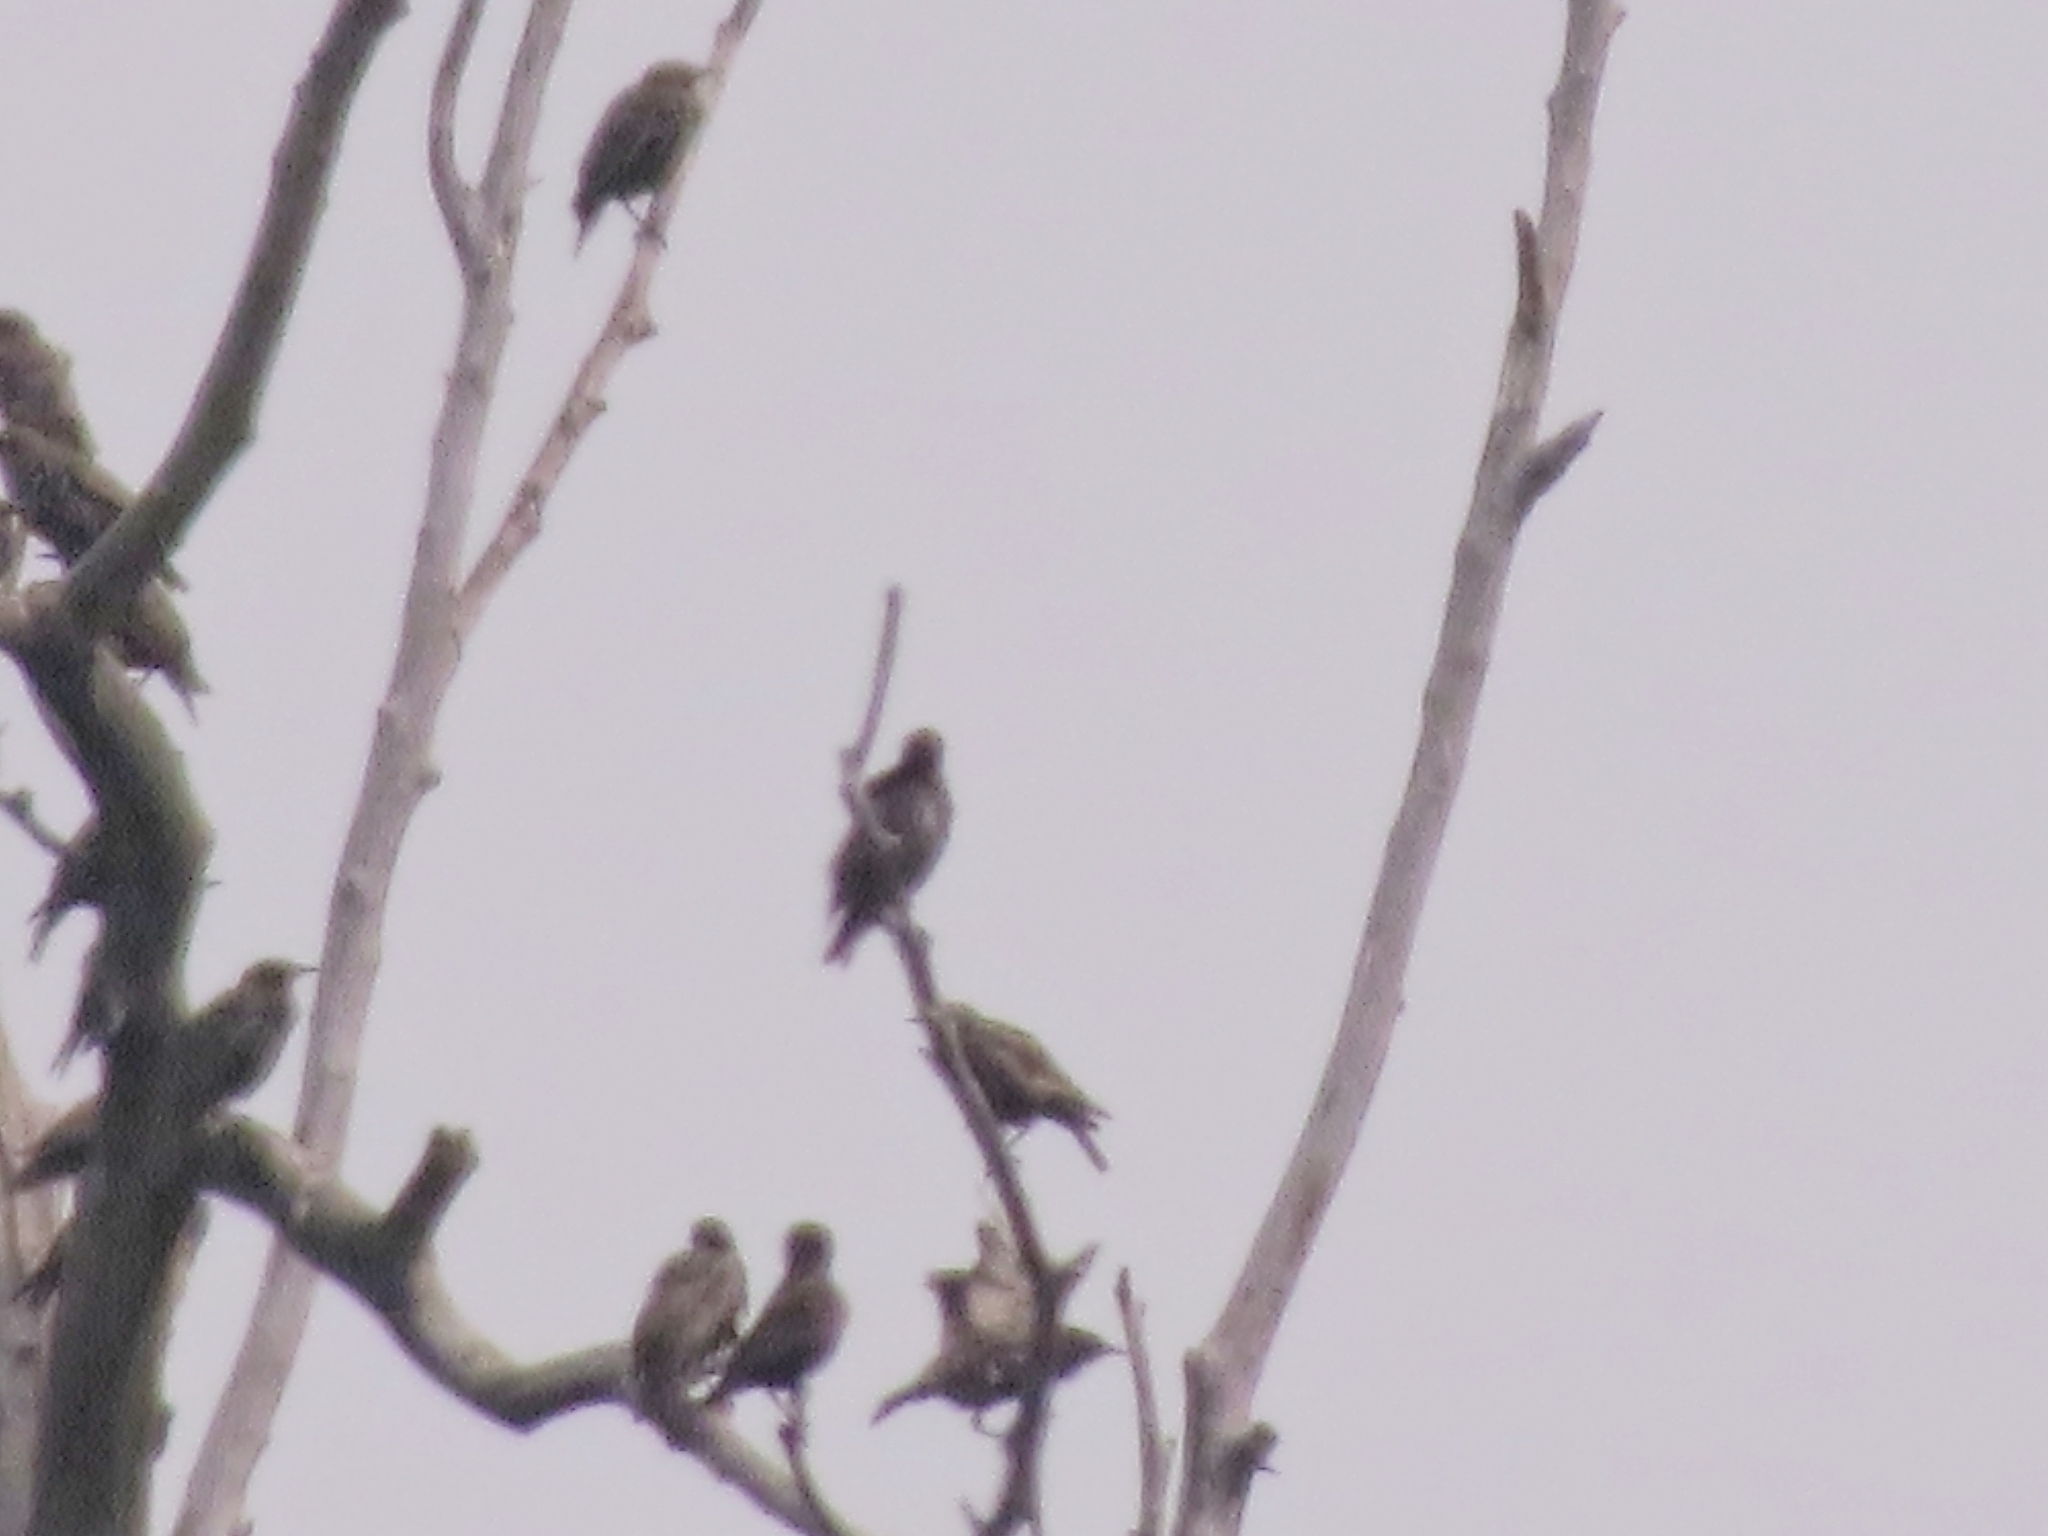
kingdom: Animalia
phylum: Chordata
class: Aves
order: Passeriformes
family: Sturnidae
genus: Sturnus
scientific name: Sturnus vulgaris
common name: Common starling
